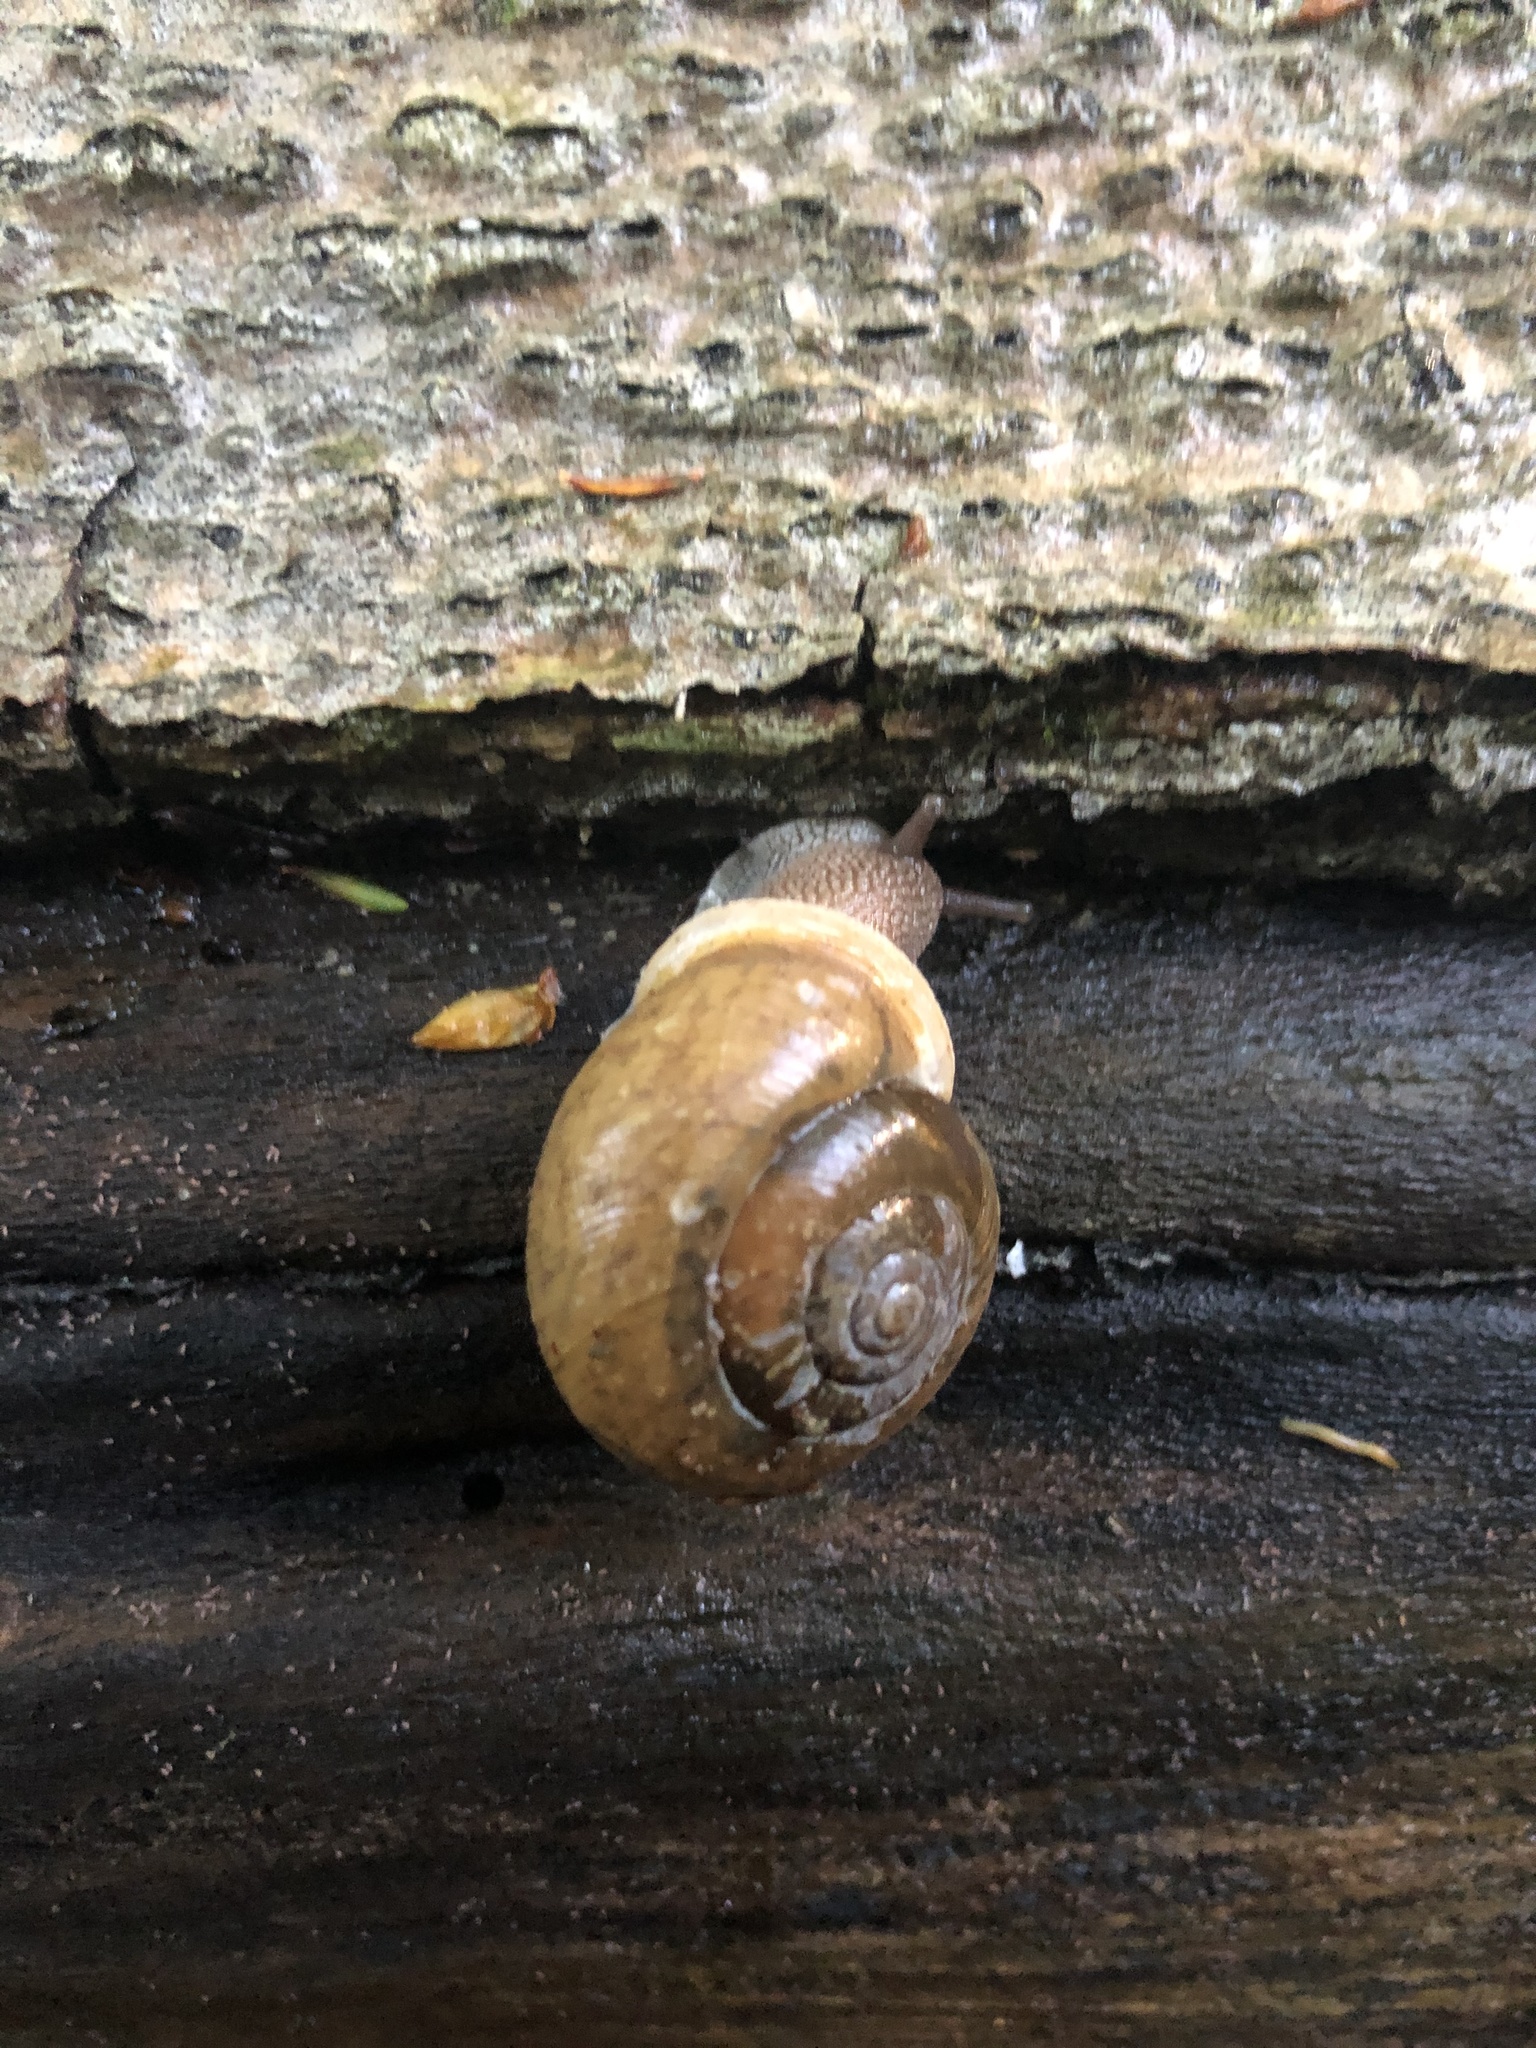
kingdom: Animalia
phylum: Mollusca
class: Gastropoda
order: Stylommatophora
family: Polygyridae
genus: Neohelix
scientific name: Neohelix albolabris
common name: Eastern whitelip
